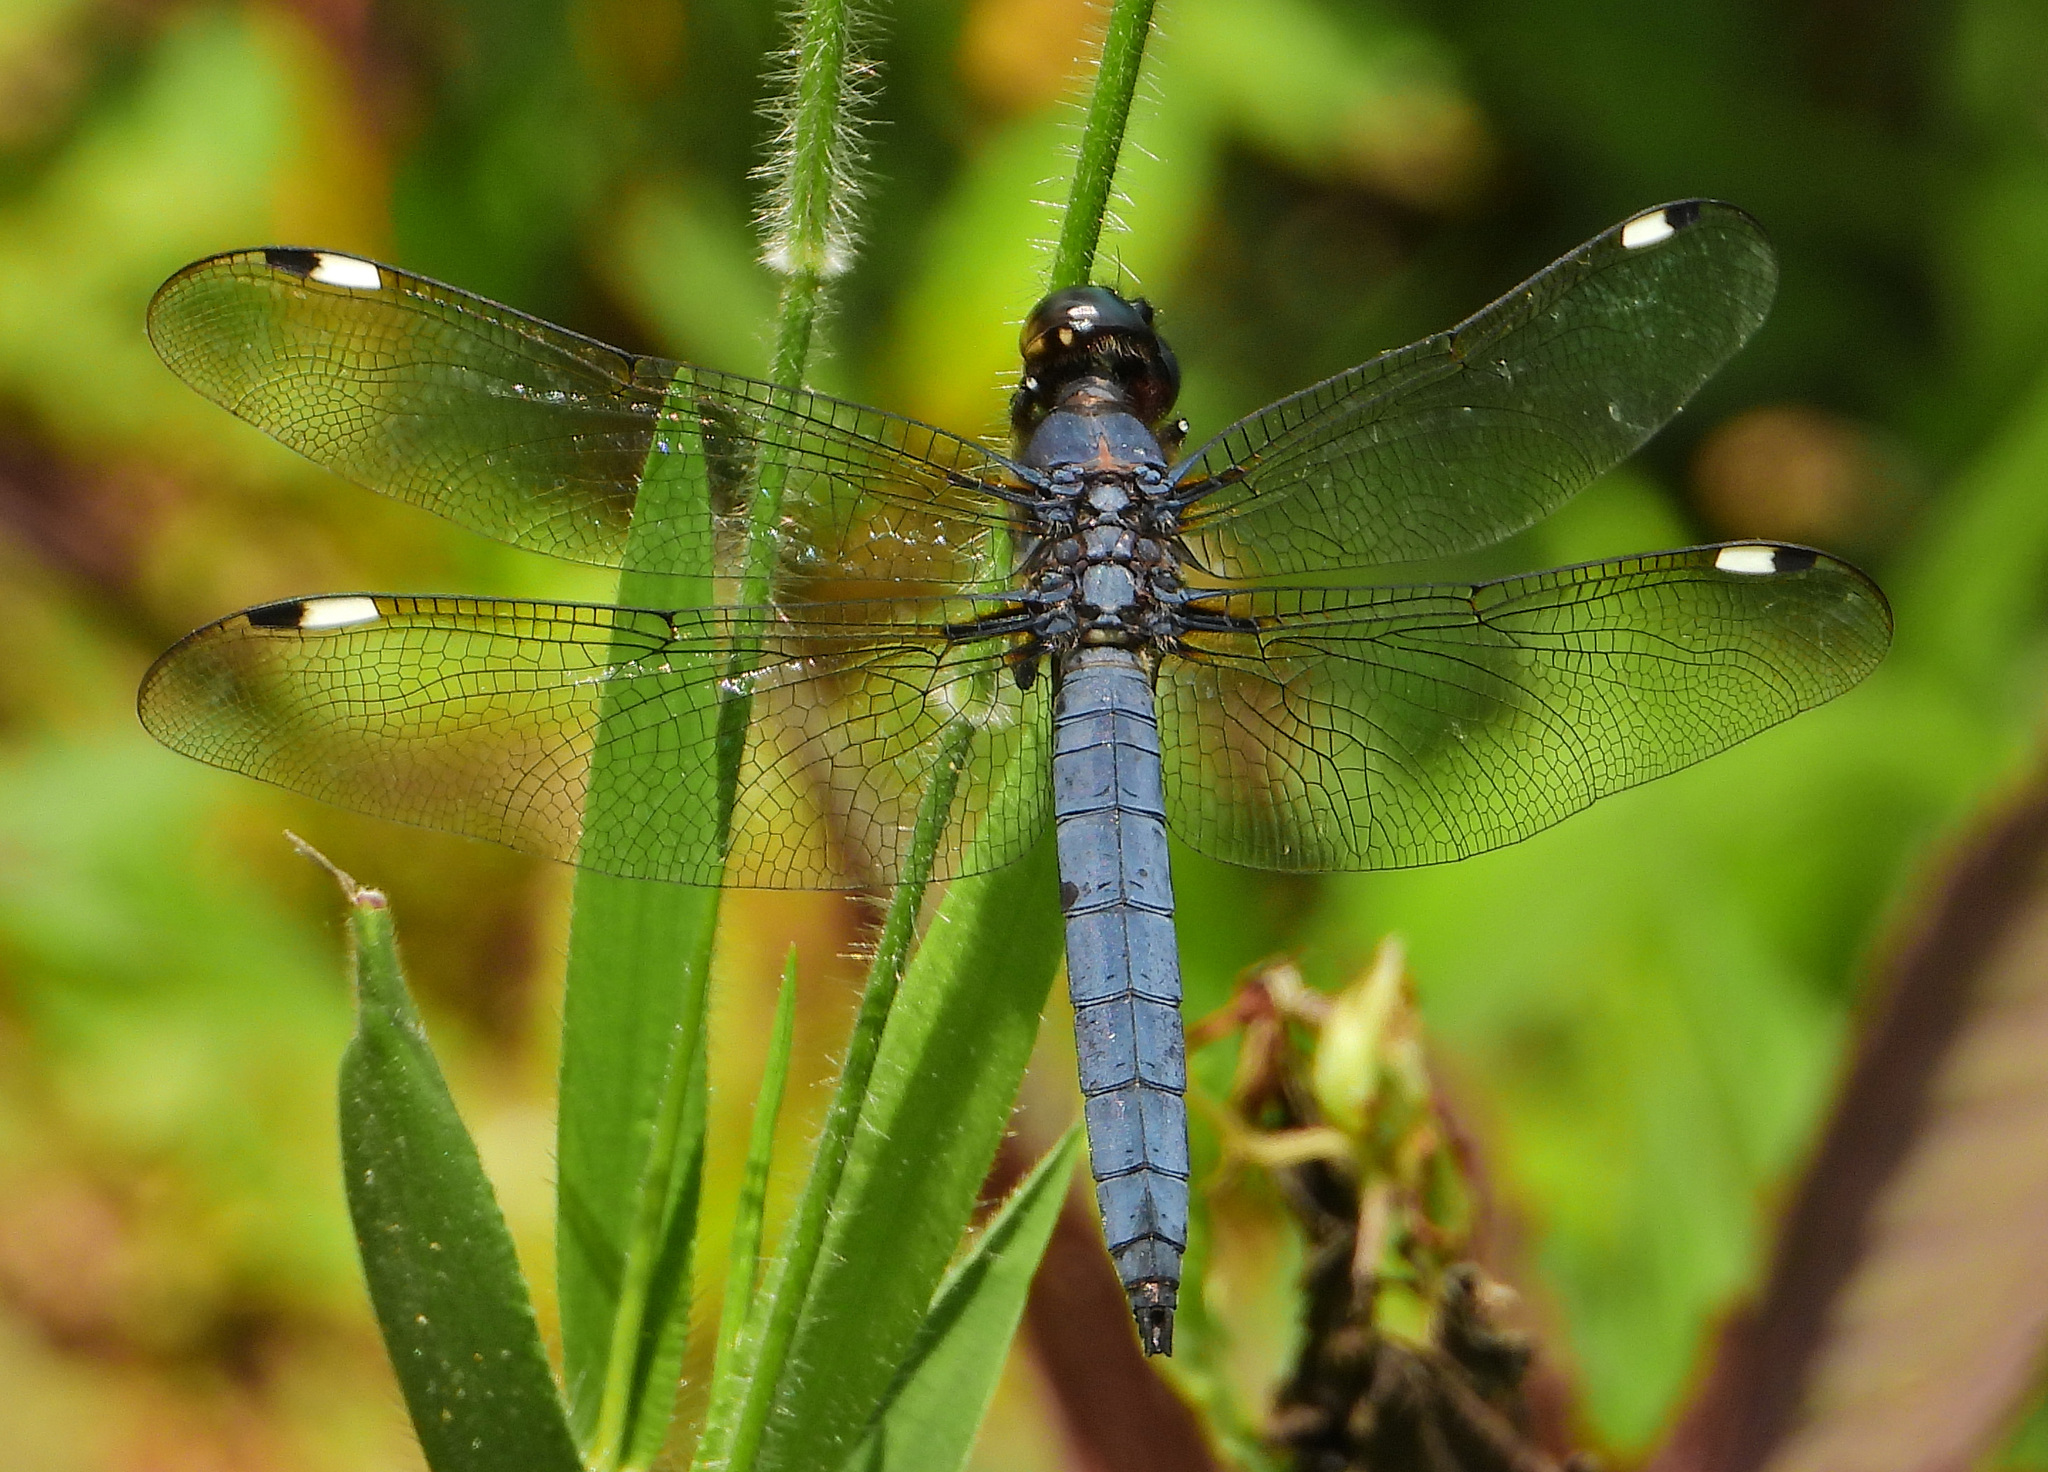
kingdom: Animalia
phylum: Arthropoda
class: Insecta
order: Odonata
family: Libellulidae
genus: Libellula
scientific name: Libellula cyanea
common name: Spangled skimmer
